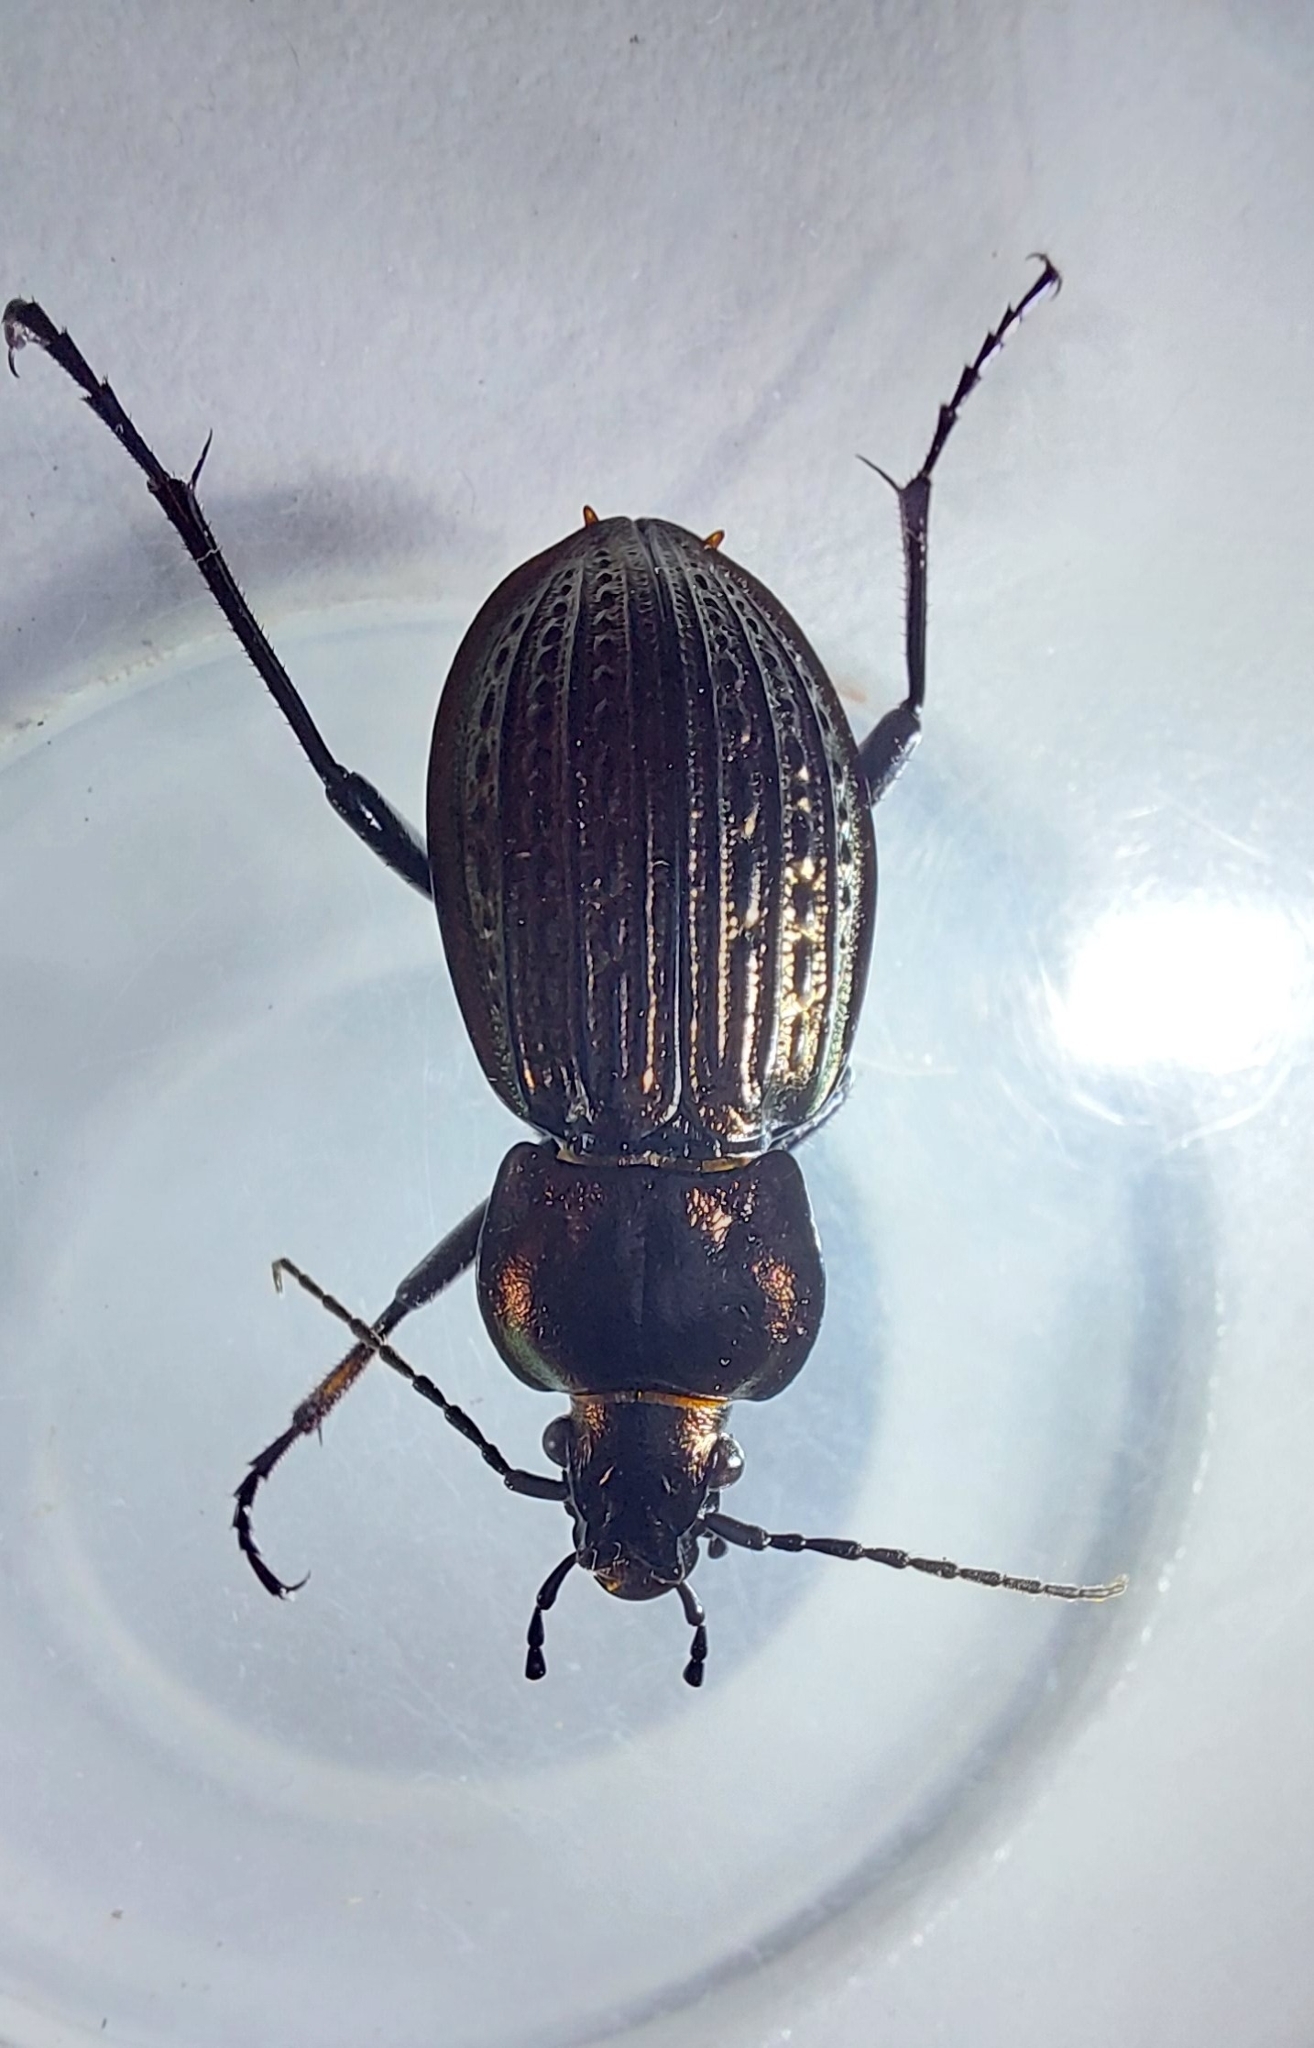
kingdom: Animalia
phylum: Arthropoda
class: Insecta
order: Coleoptera
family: Carabidae
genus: Carabus
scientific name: Carabus ulrichii
